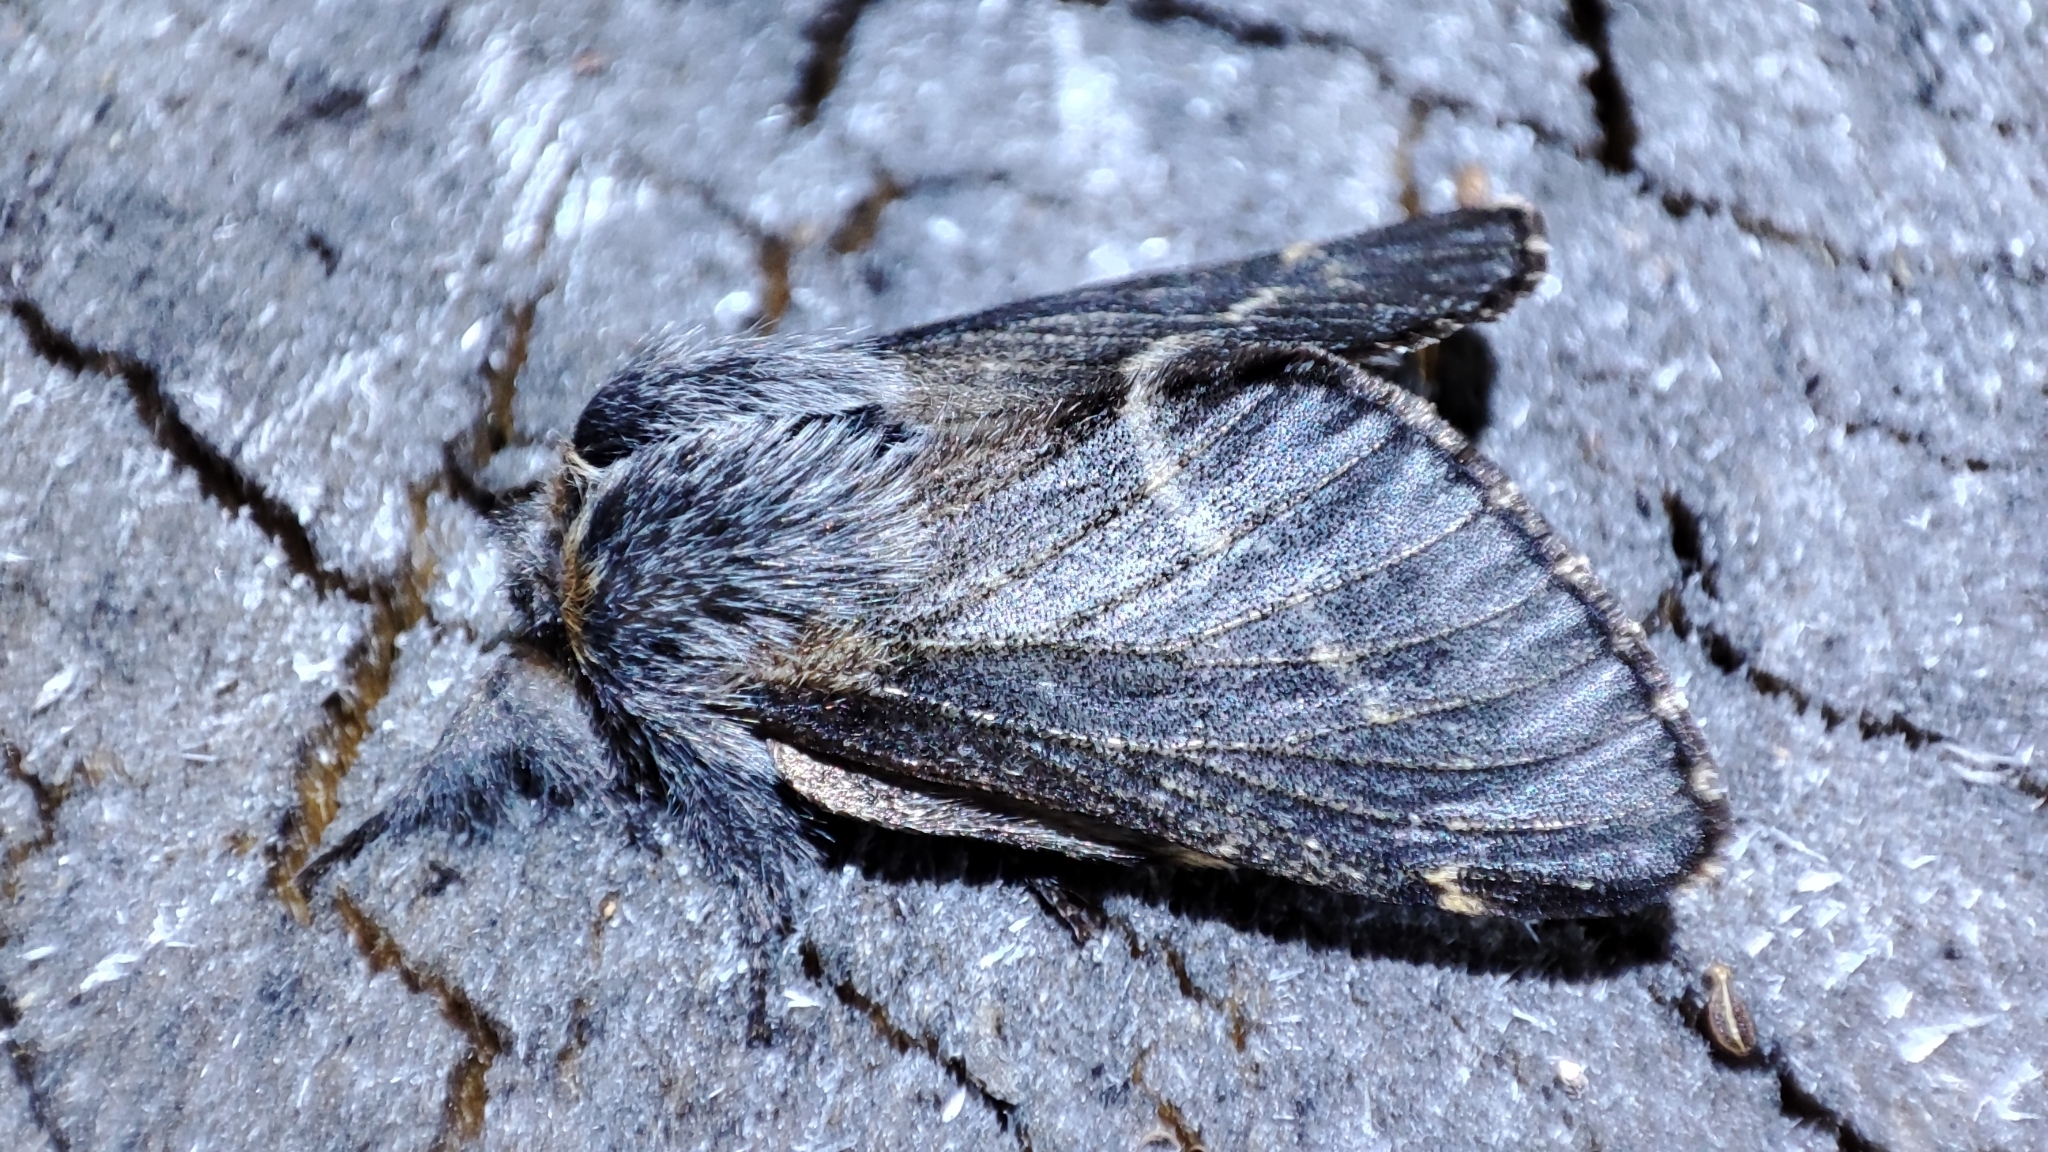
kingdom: Animalia
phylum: Arthropoda
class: Insecta
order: Lepidoptera
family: Lasiocampidae
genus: Poecilocampa
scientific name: Poecilocampa populi
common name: December moth
